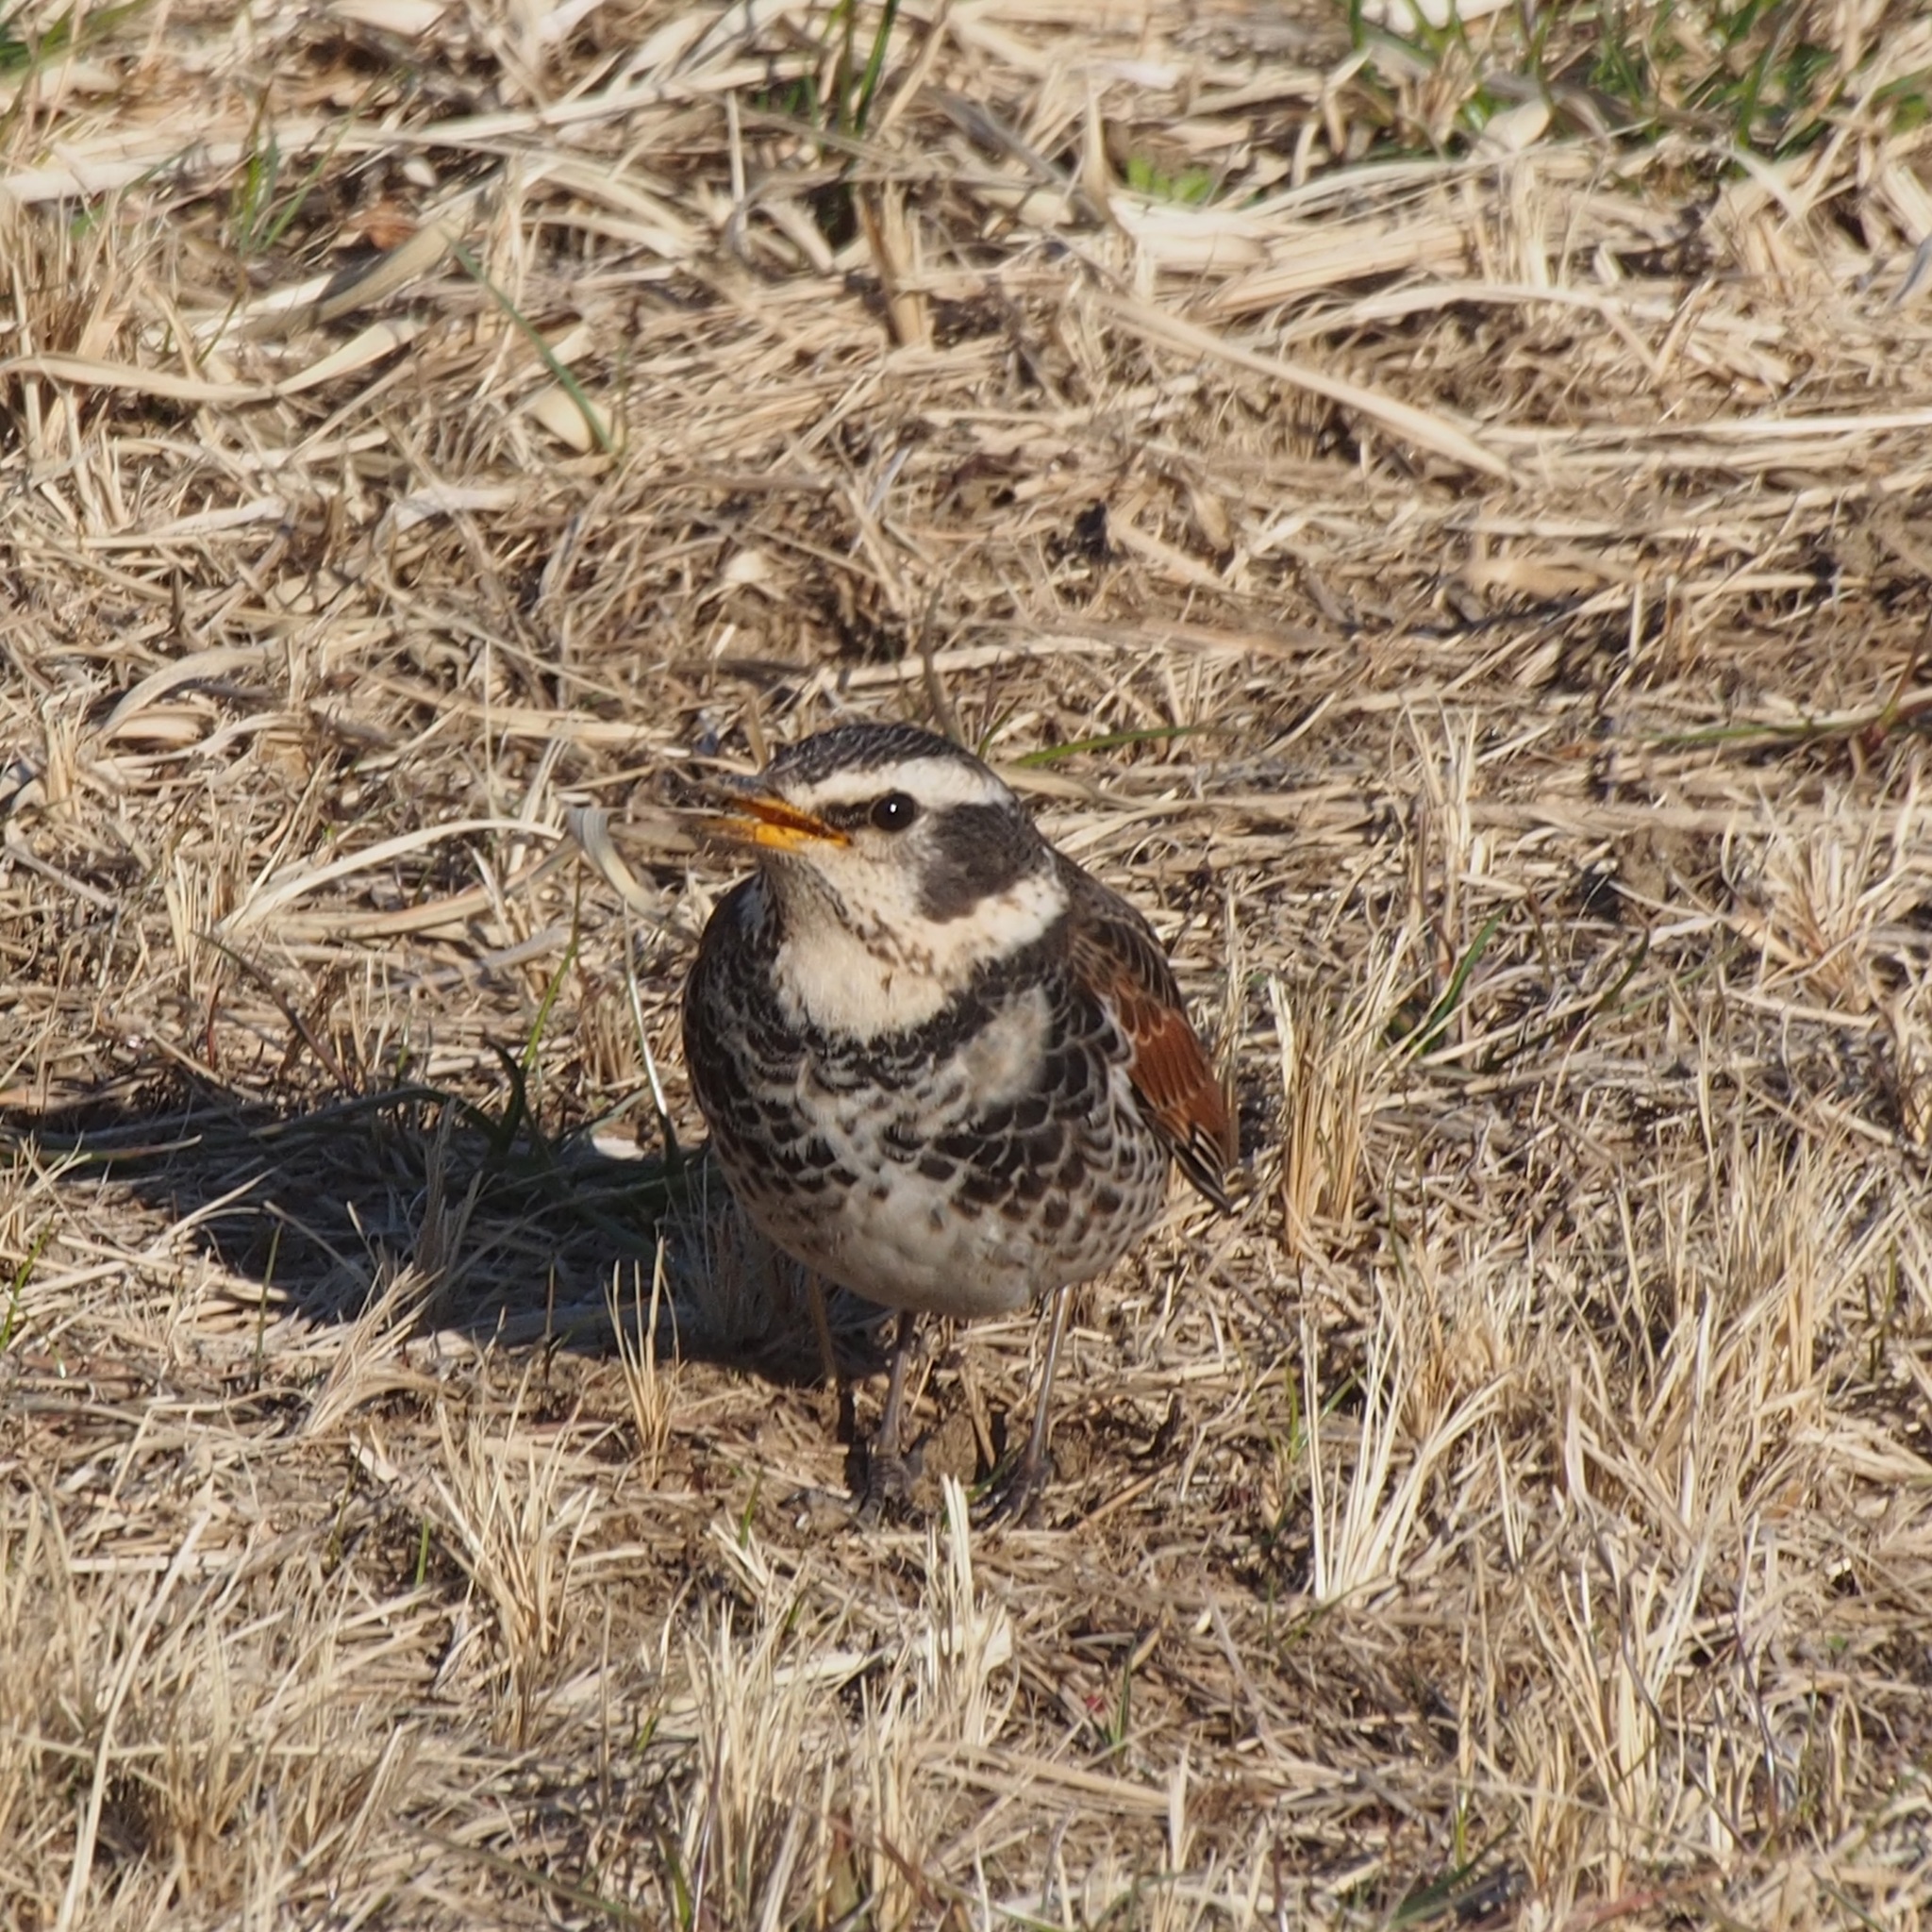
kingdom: Animalia
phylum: Chordata
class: Aves
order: Passeriformes
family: Turdidae
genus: Turdus
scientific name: Turdus eunomus
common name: Dusky thrush
